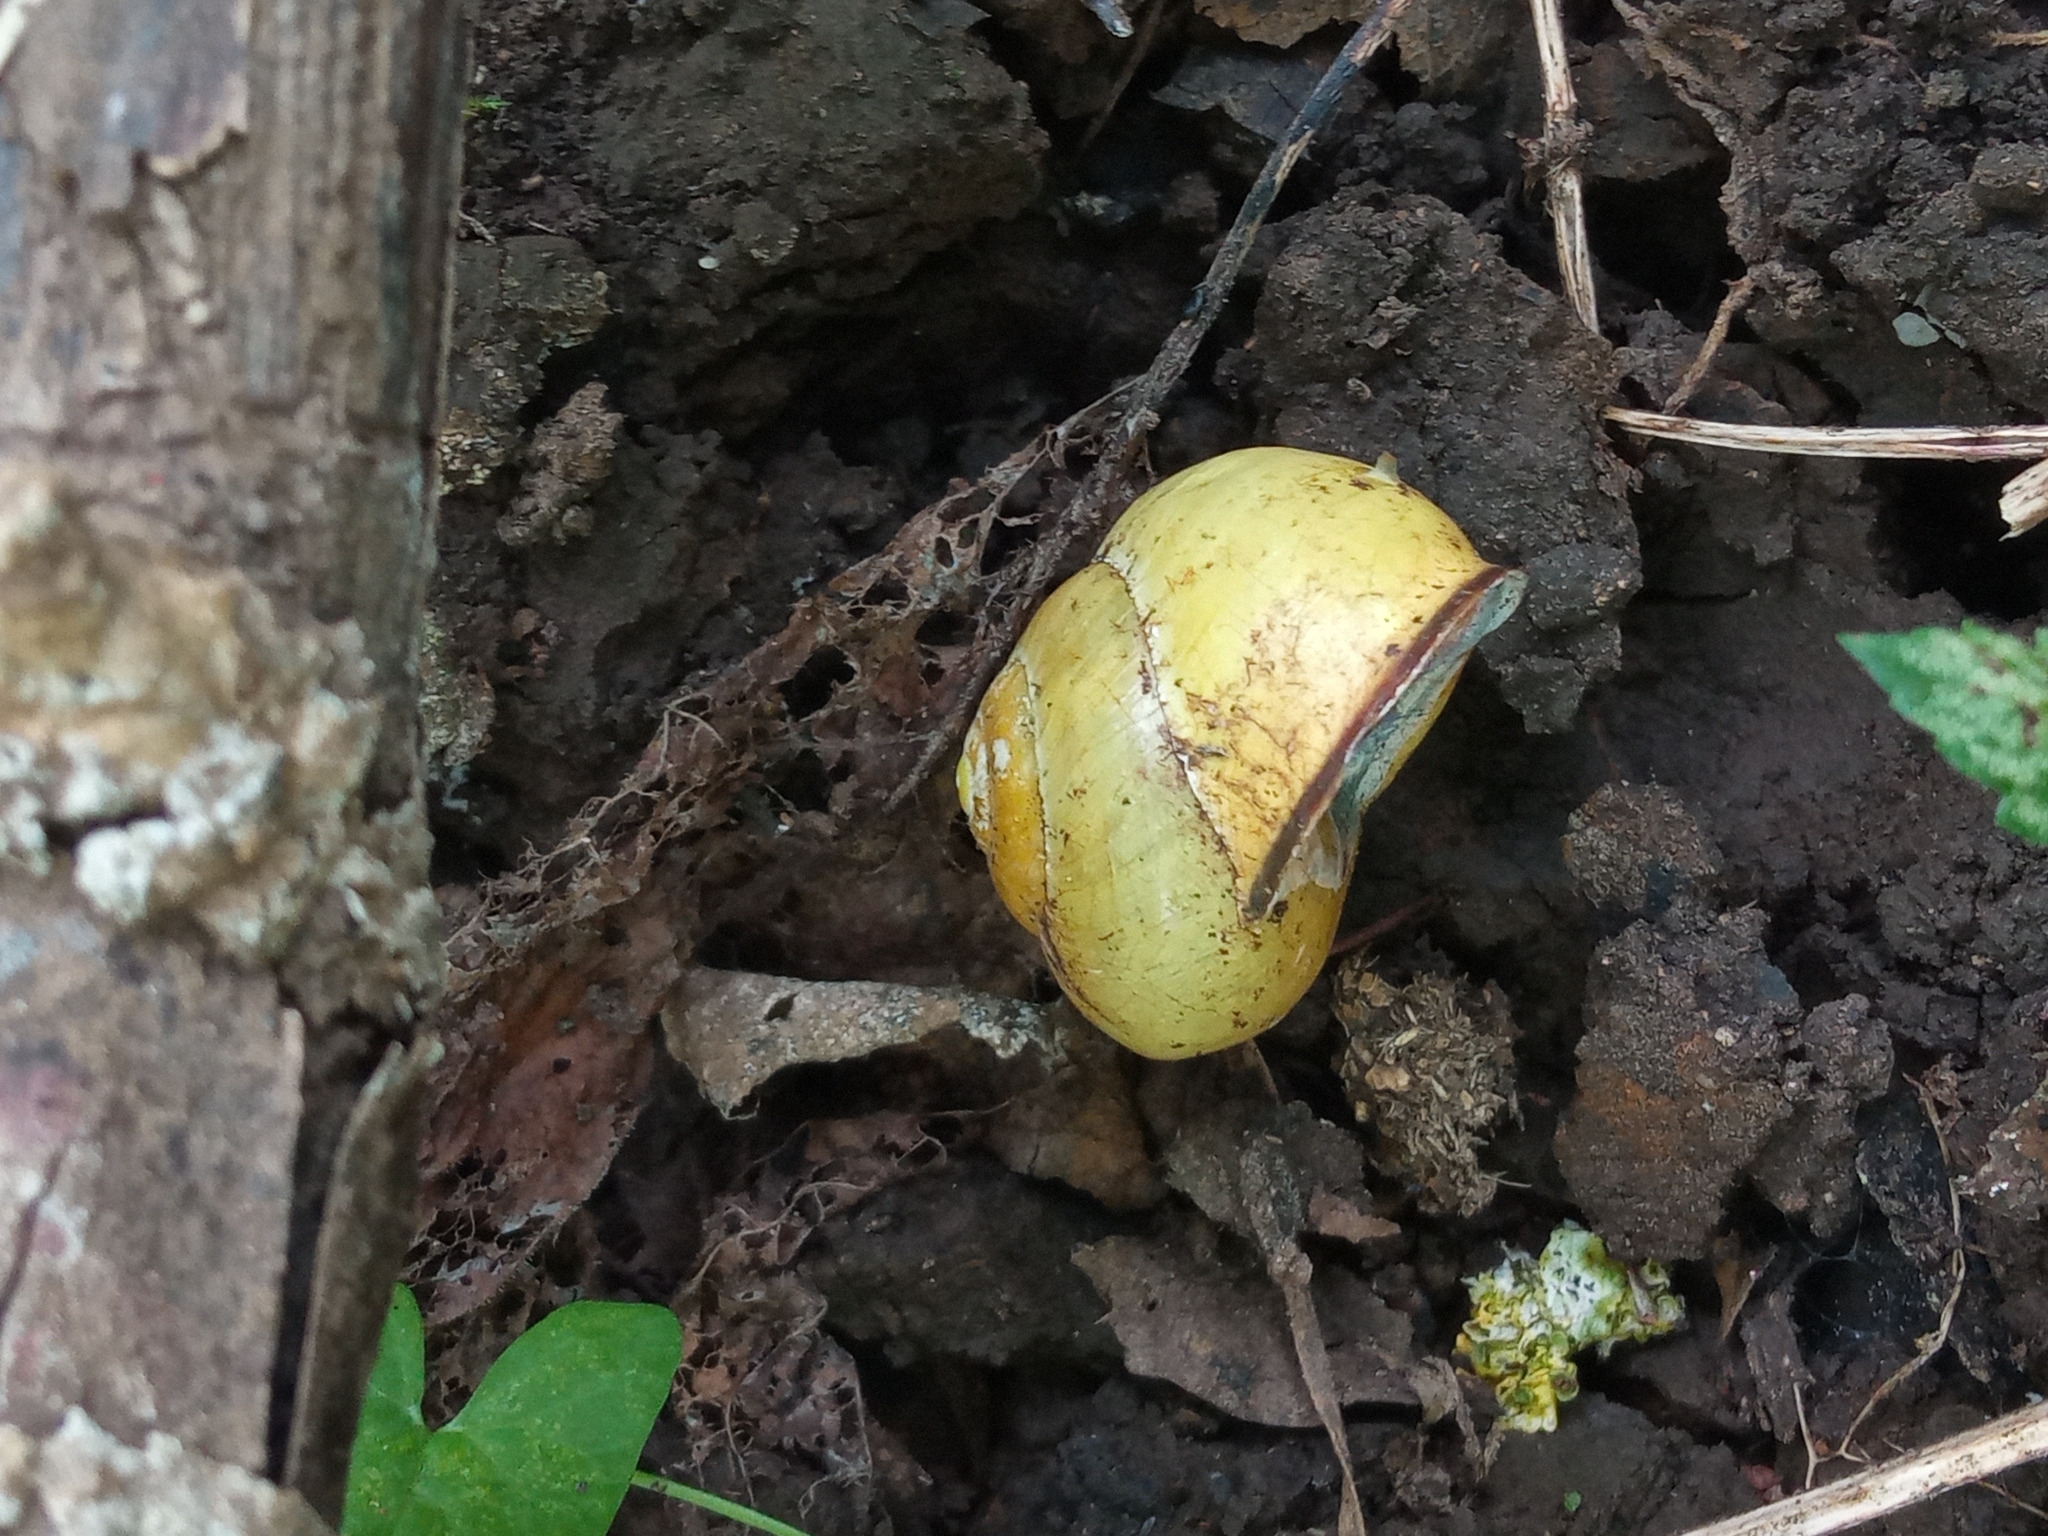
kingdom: Animalia
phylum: Mollusca
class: Gastropoda
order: Stylommatophora
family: Helicidae
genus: Cepaea
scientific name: Cepaea nemoralis
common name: Grovesnail
